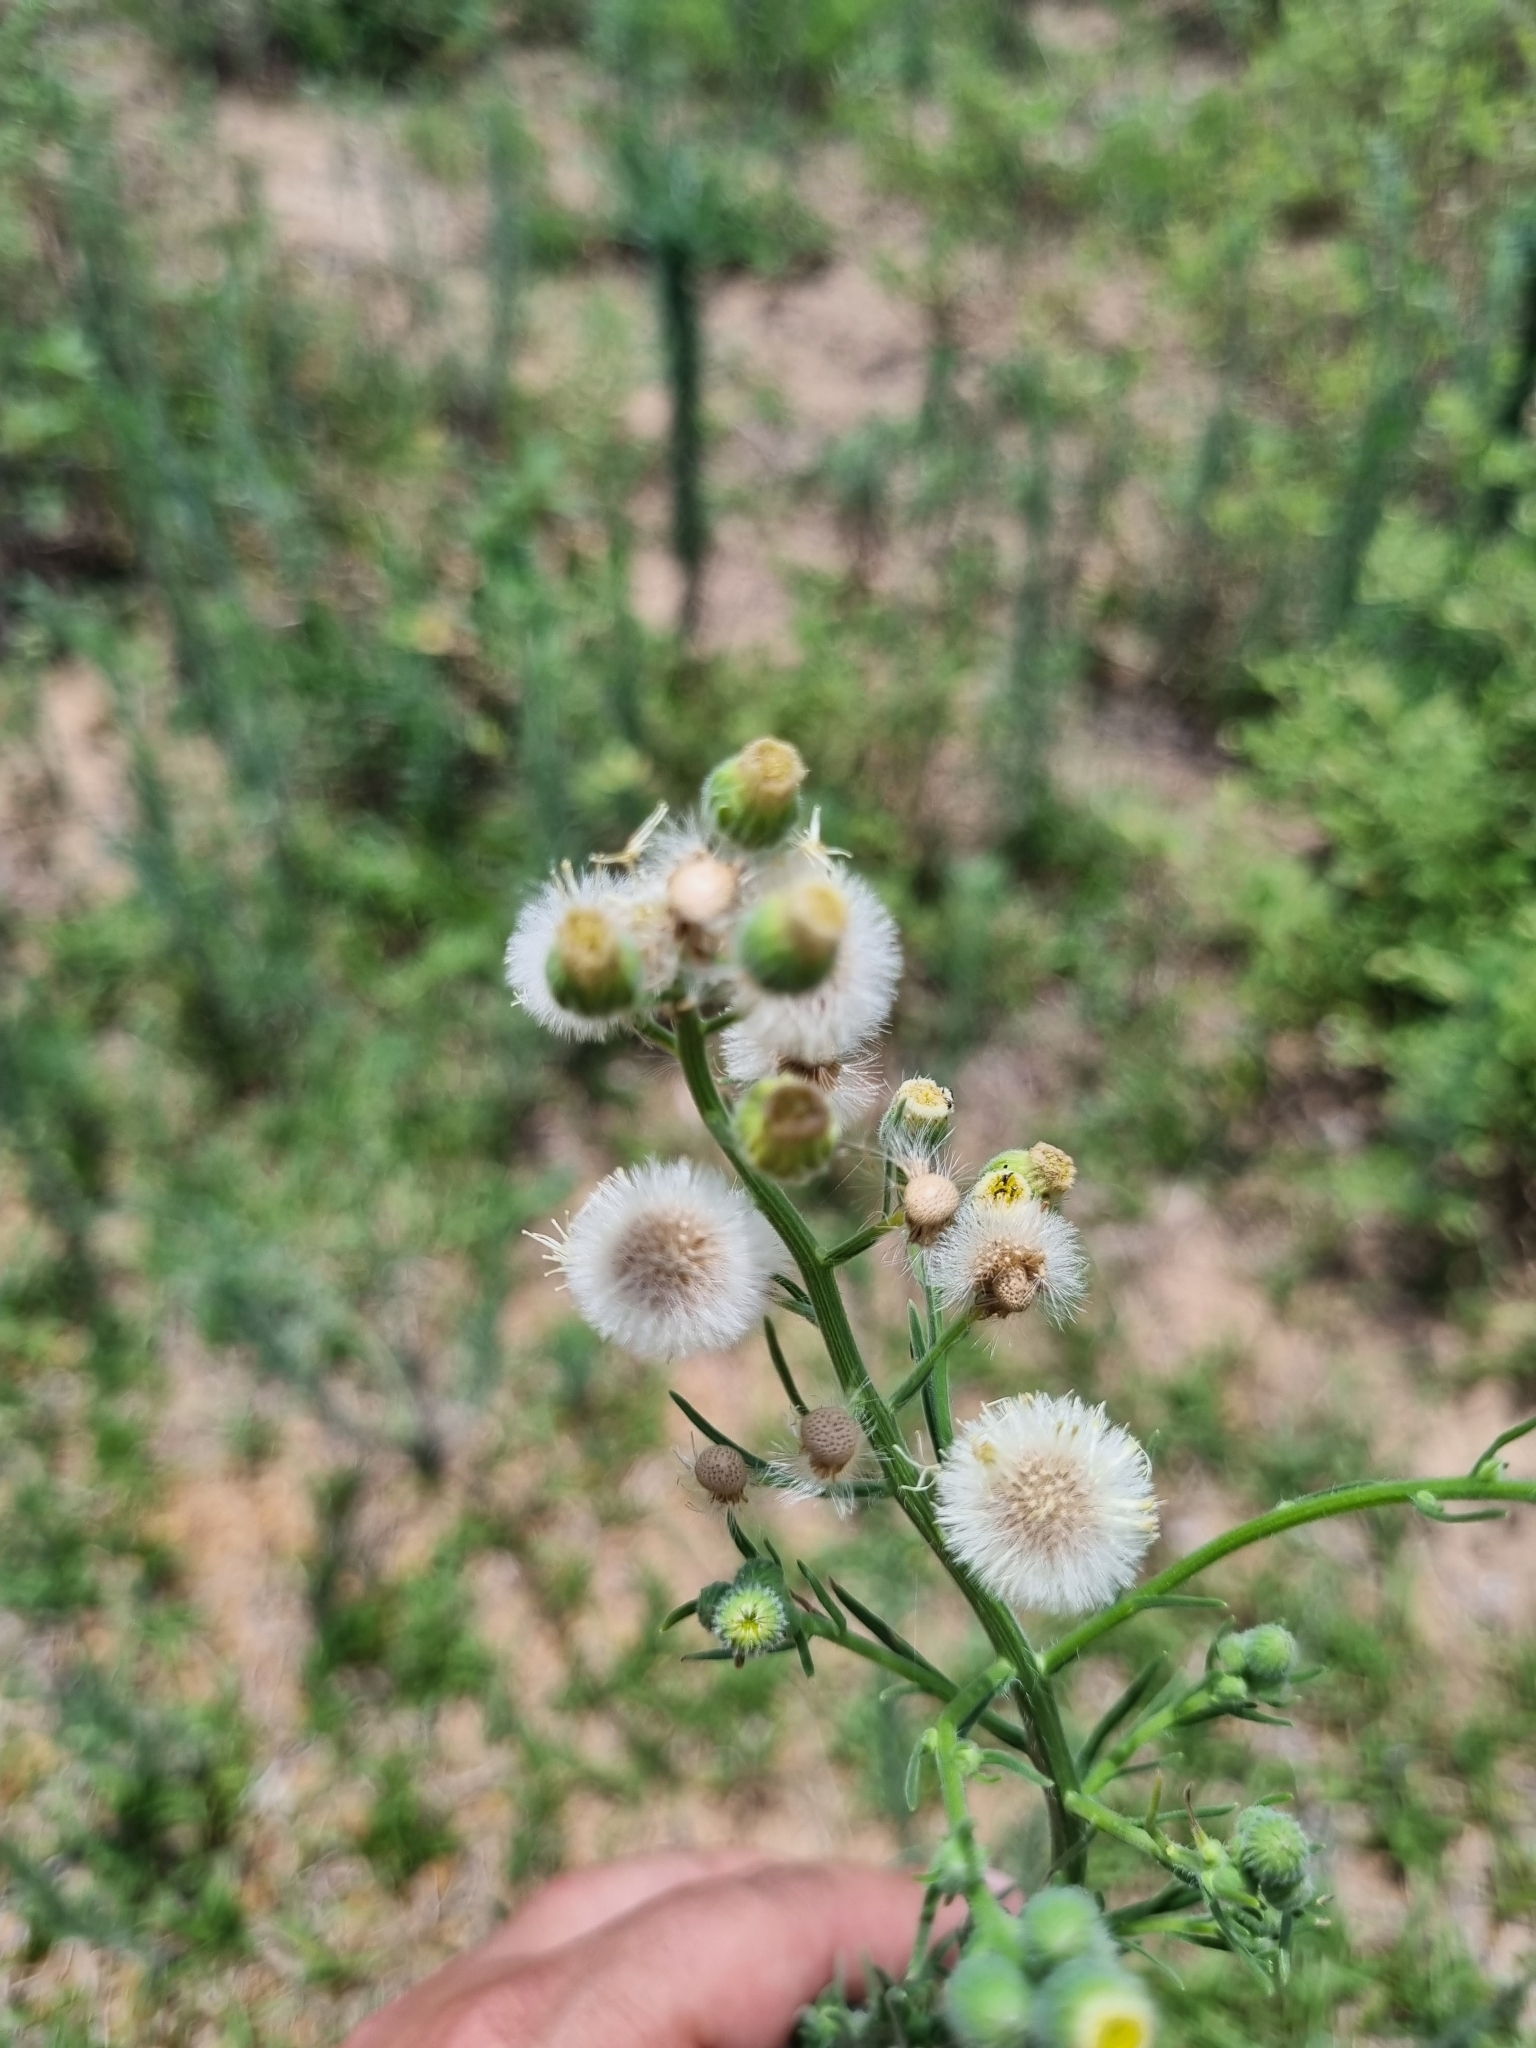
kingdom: Plantae
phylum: Tracheophyta
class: Magnoliopsida
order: Asterales
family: Asteraceae
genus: Erigeron
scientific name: Erigeron bonariensis
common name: Argentine fleabane
